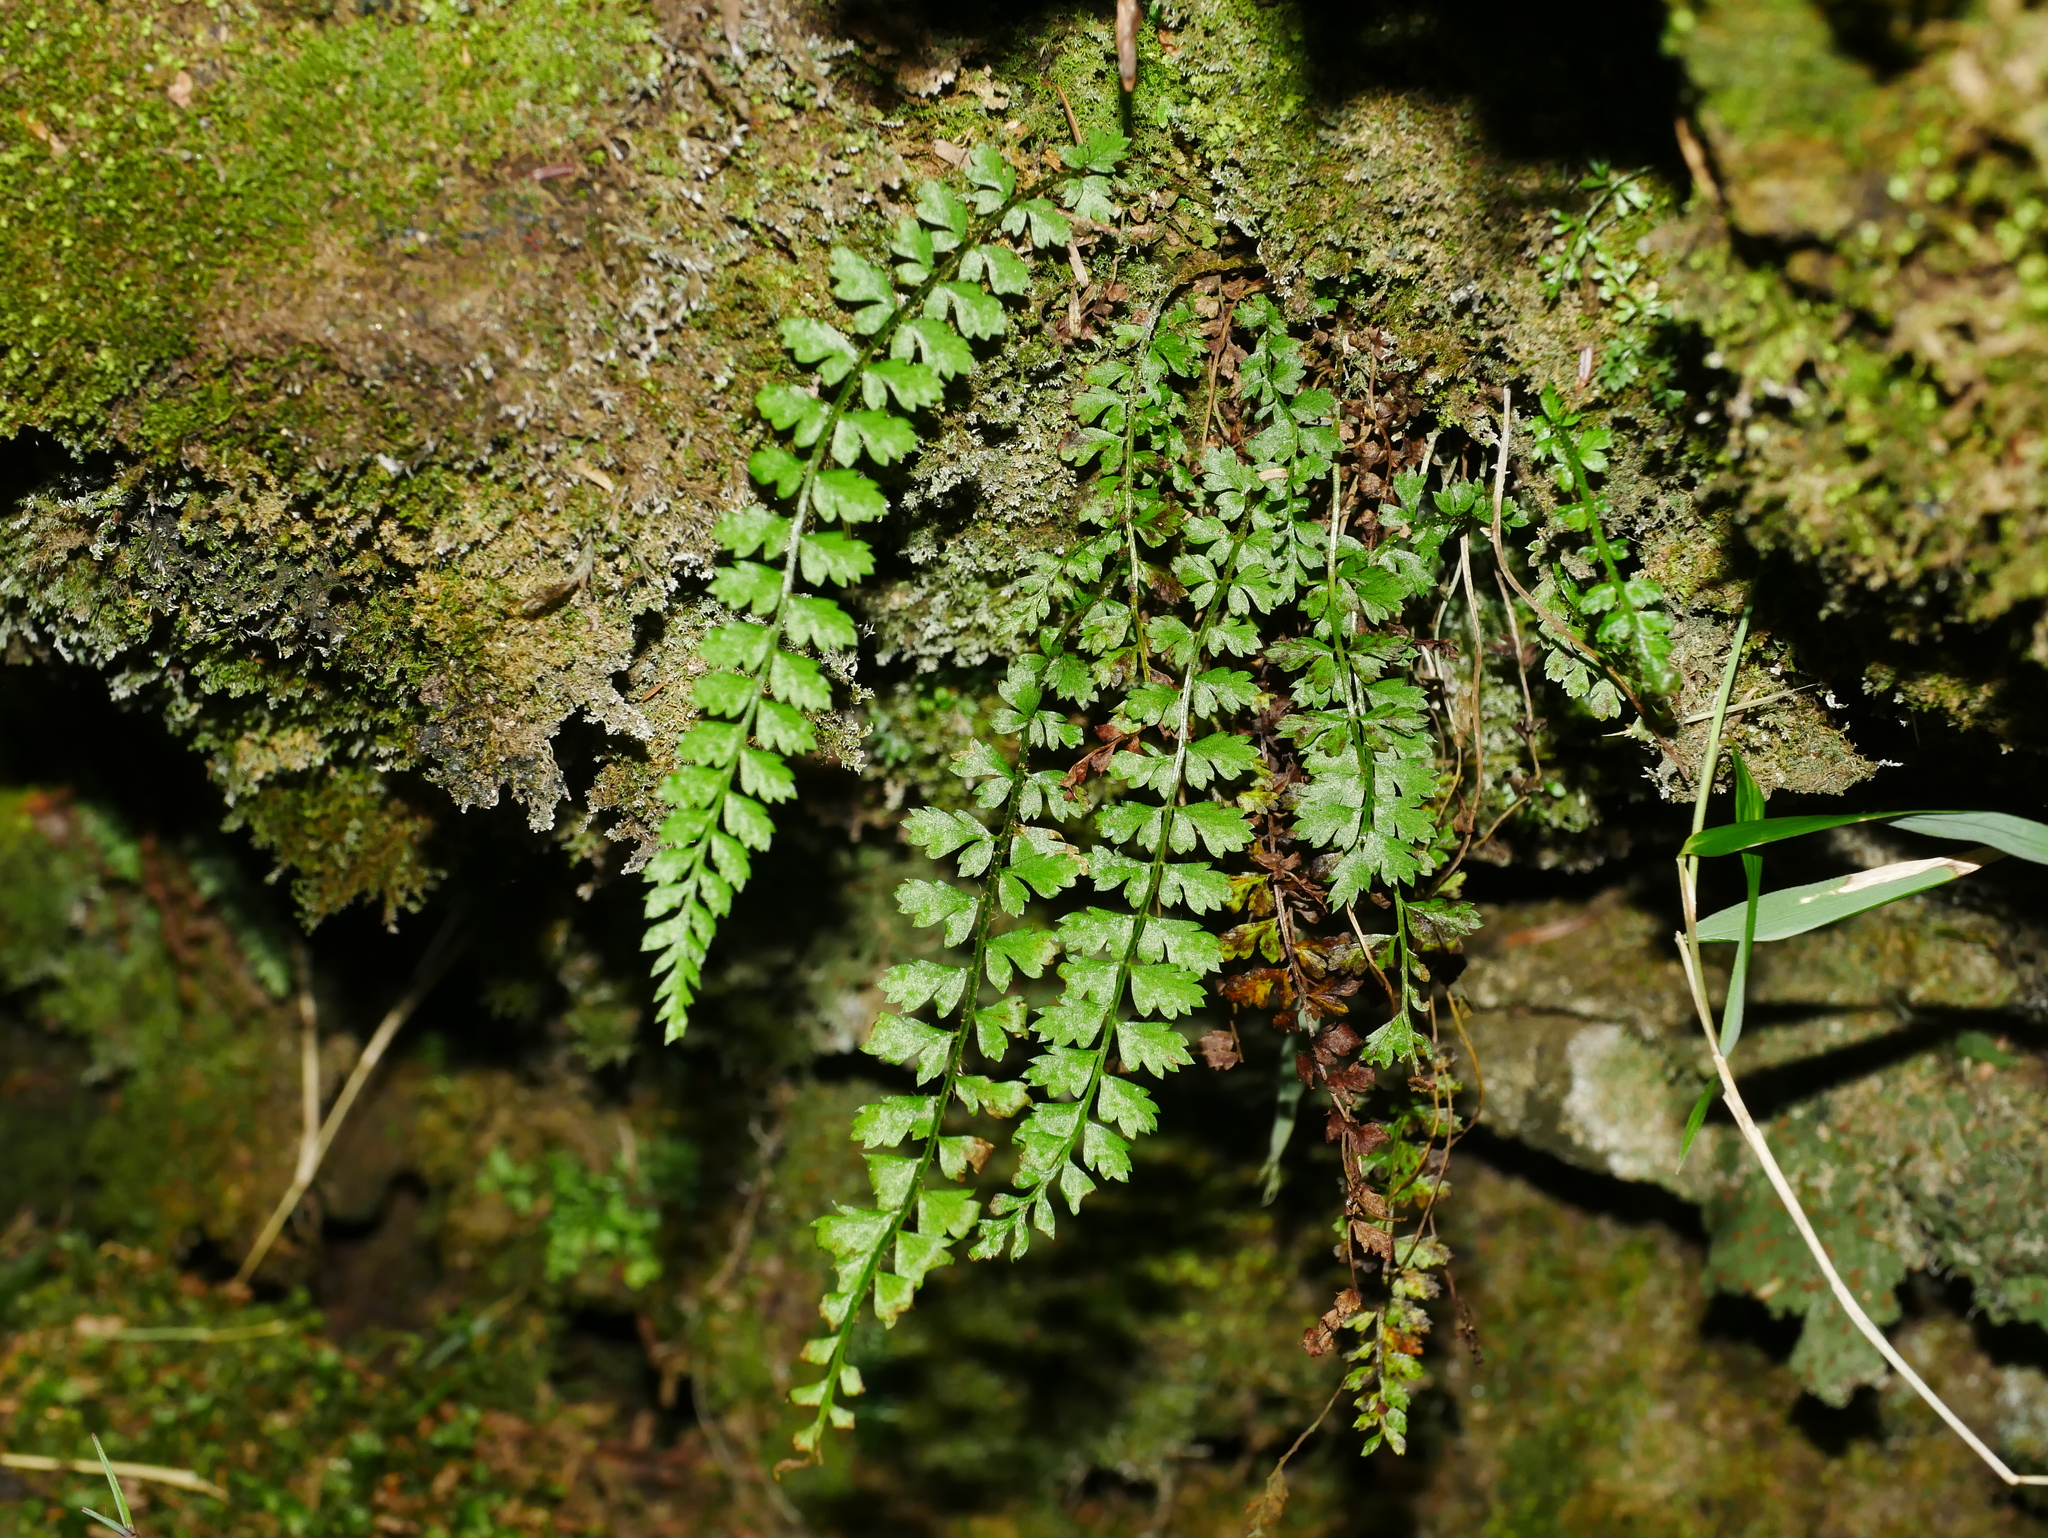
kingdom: Plantae
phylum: Tracheophyta
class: Polypodiopsida
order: Polypodiales
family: Dryopteridaceae
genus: Polystichum
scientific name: Polystichum thomsonii
